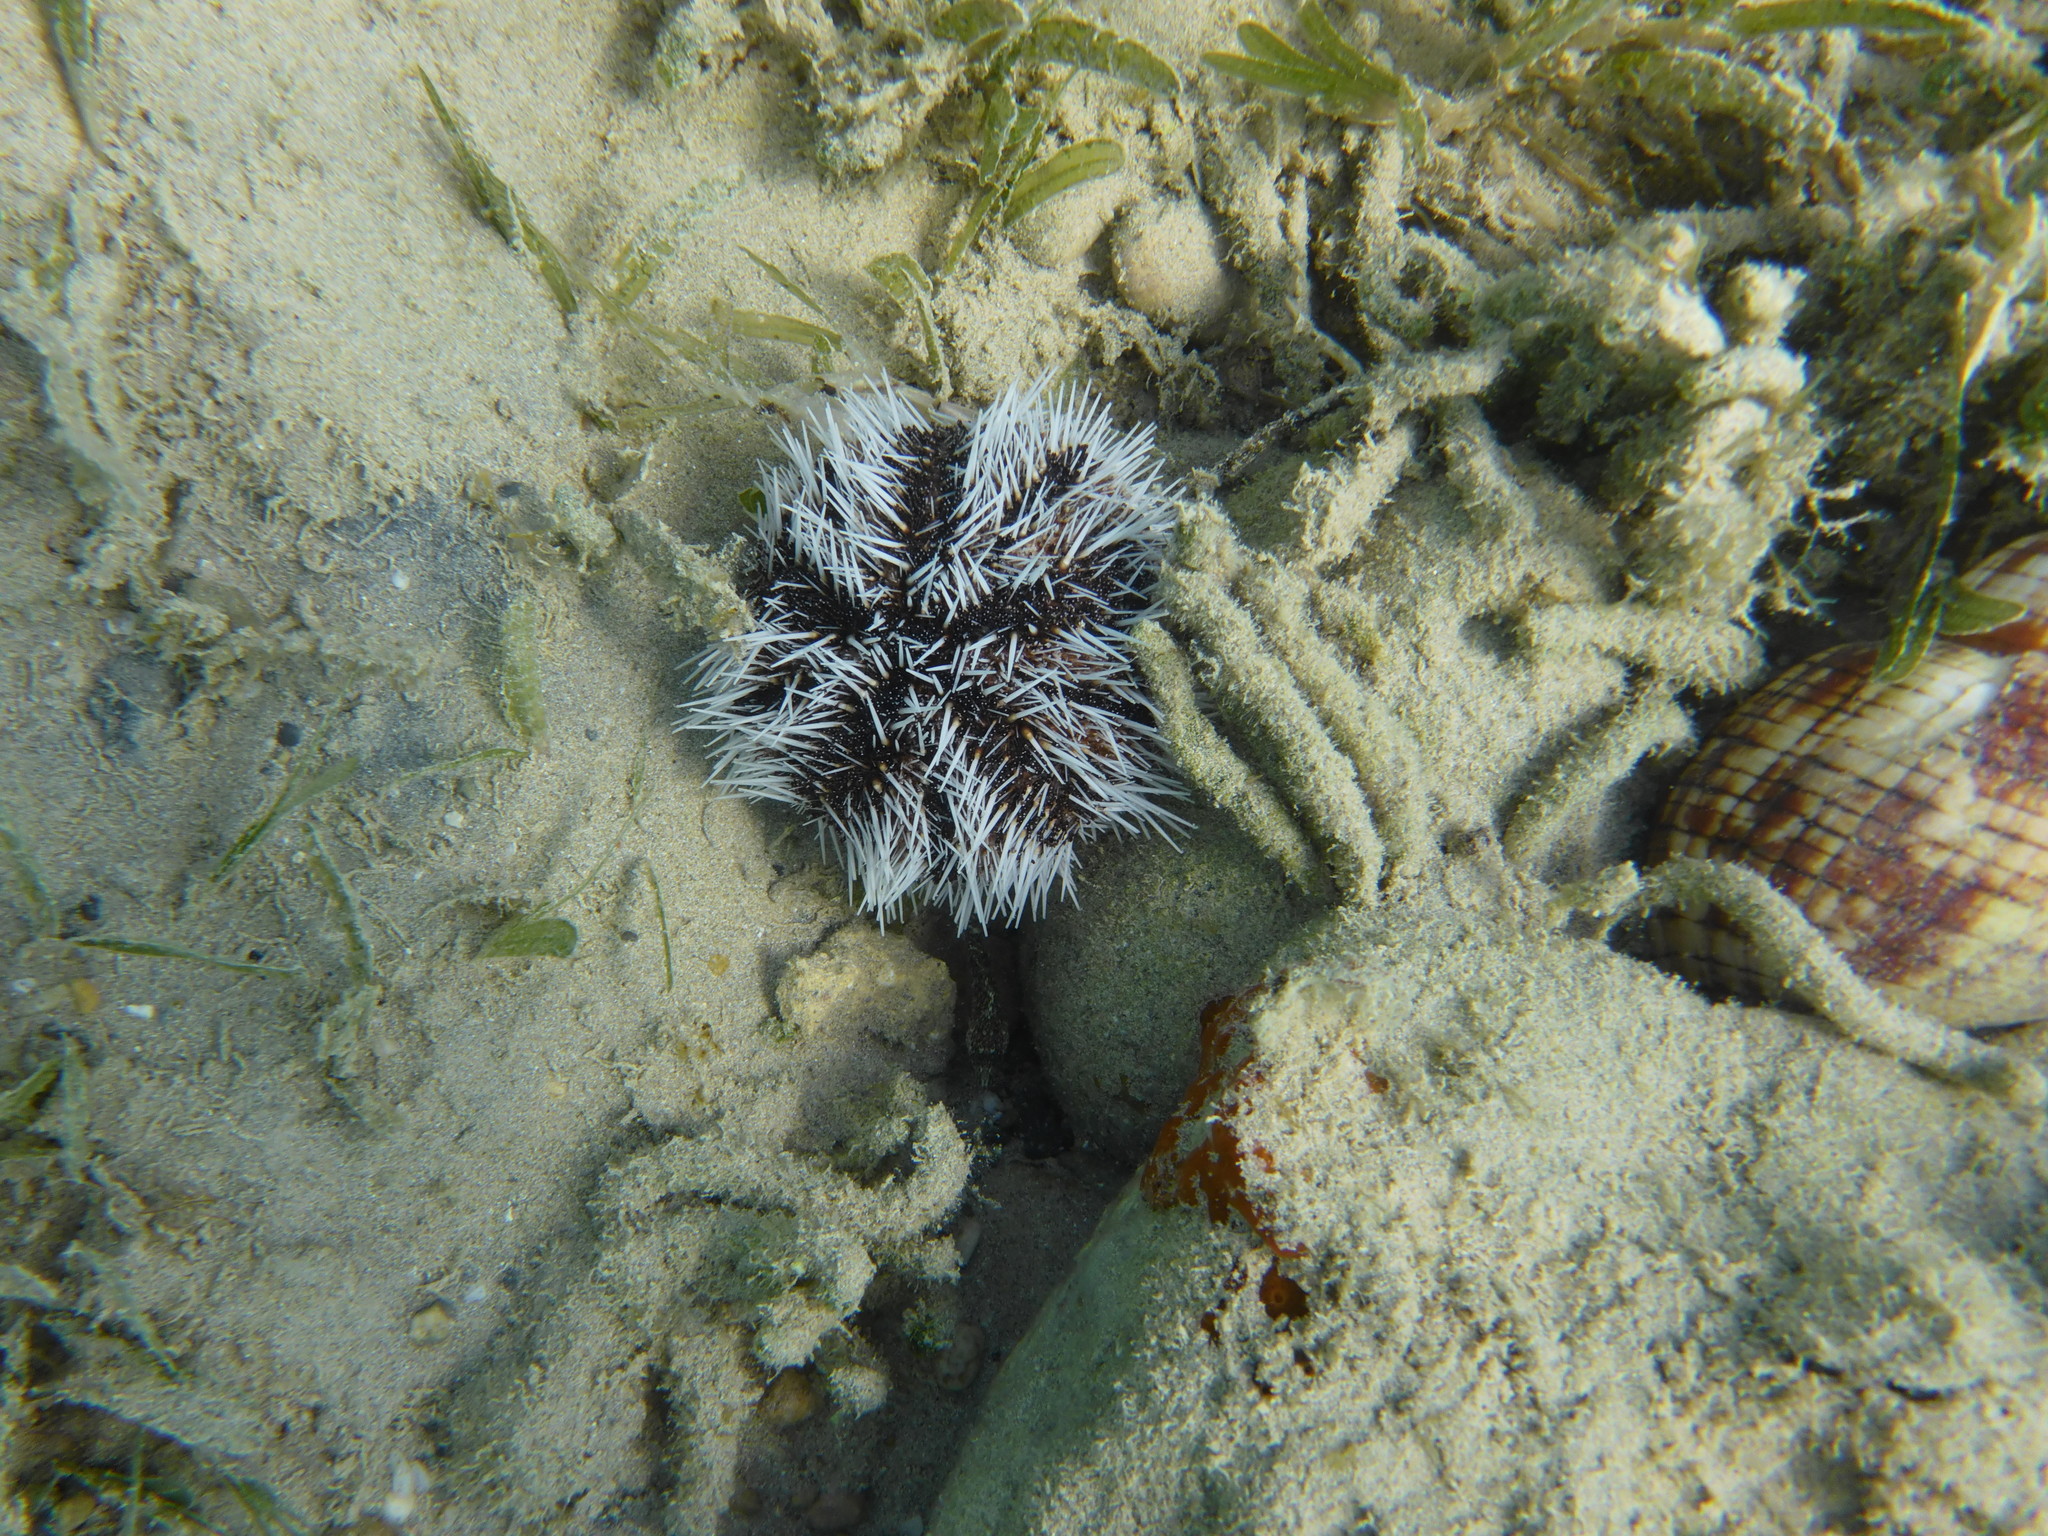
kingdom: Animalia
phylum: Echinodermata
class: Echinoidea
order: Camarodonta
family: Toxopneustidae
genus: Tripneustes
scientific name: Tripneustes ventricosus
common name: West indian sea egg
